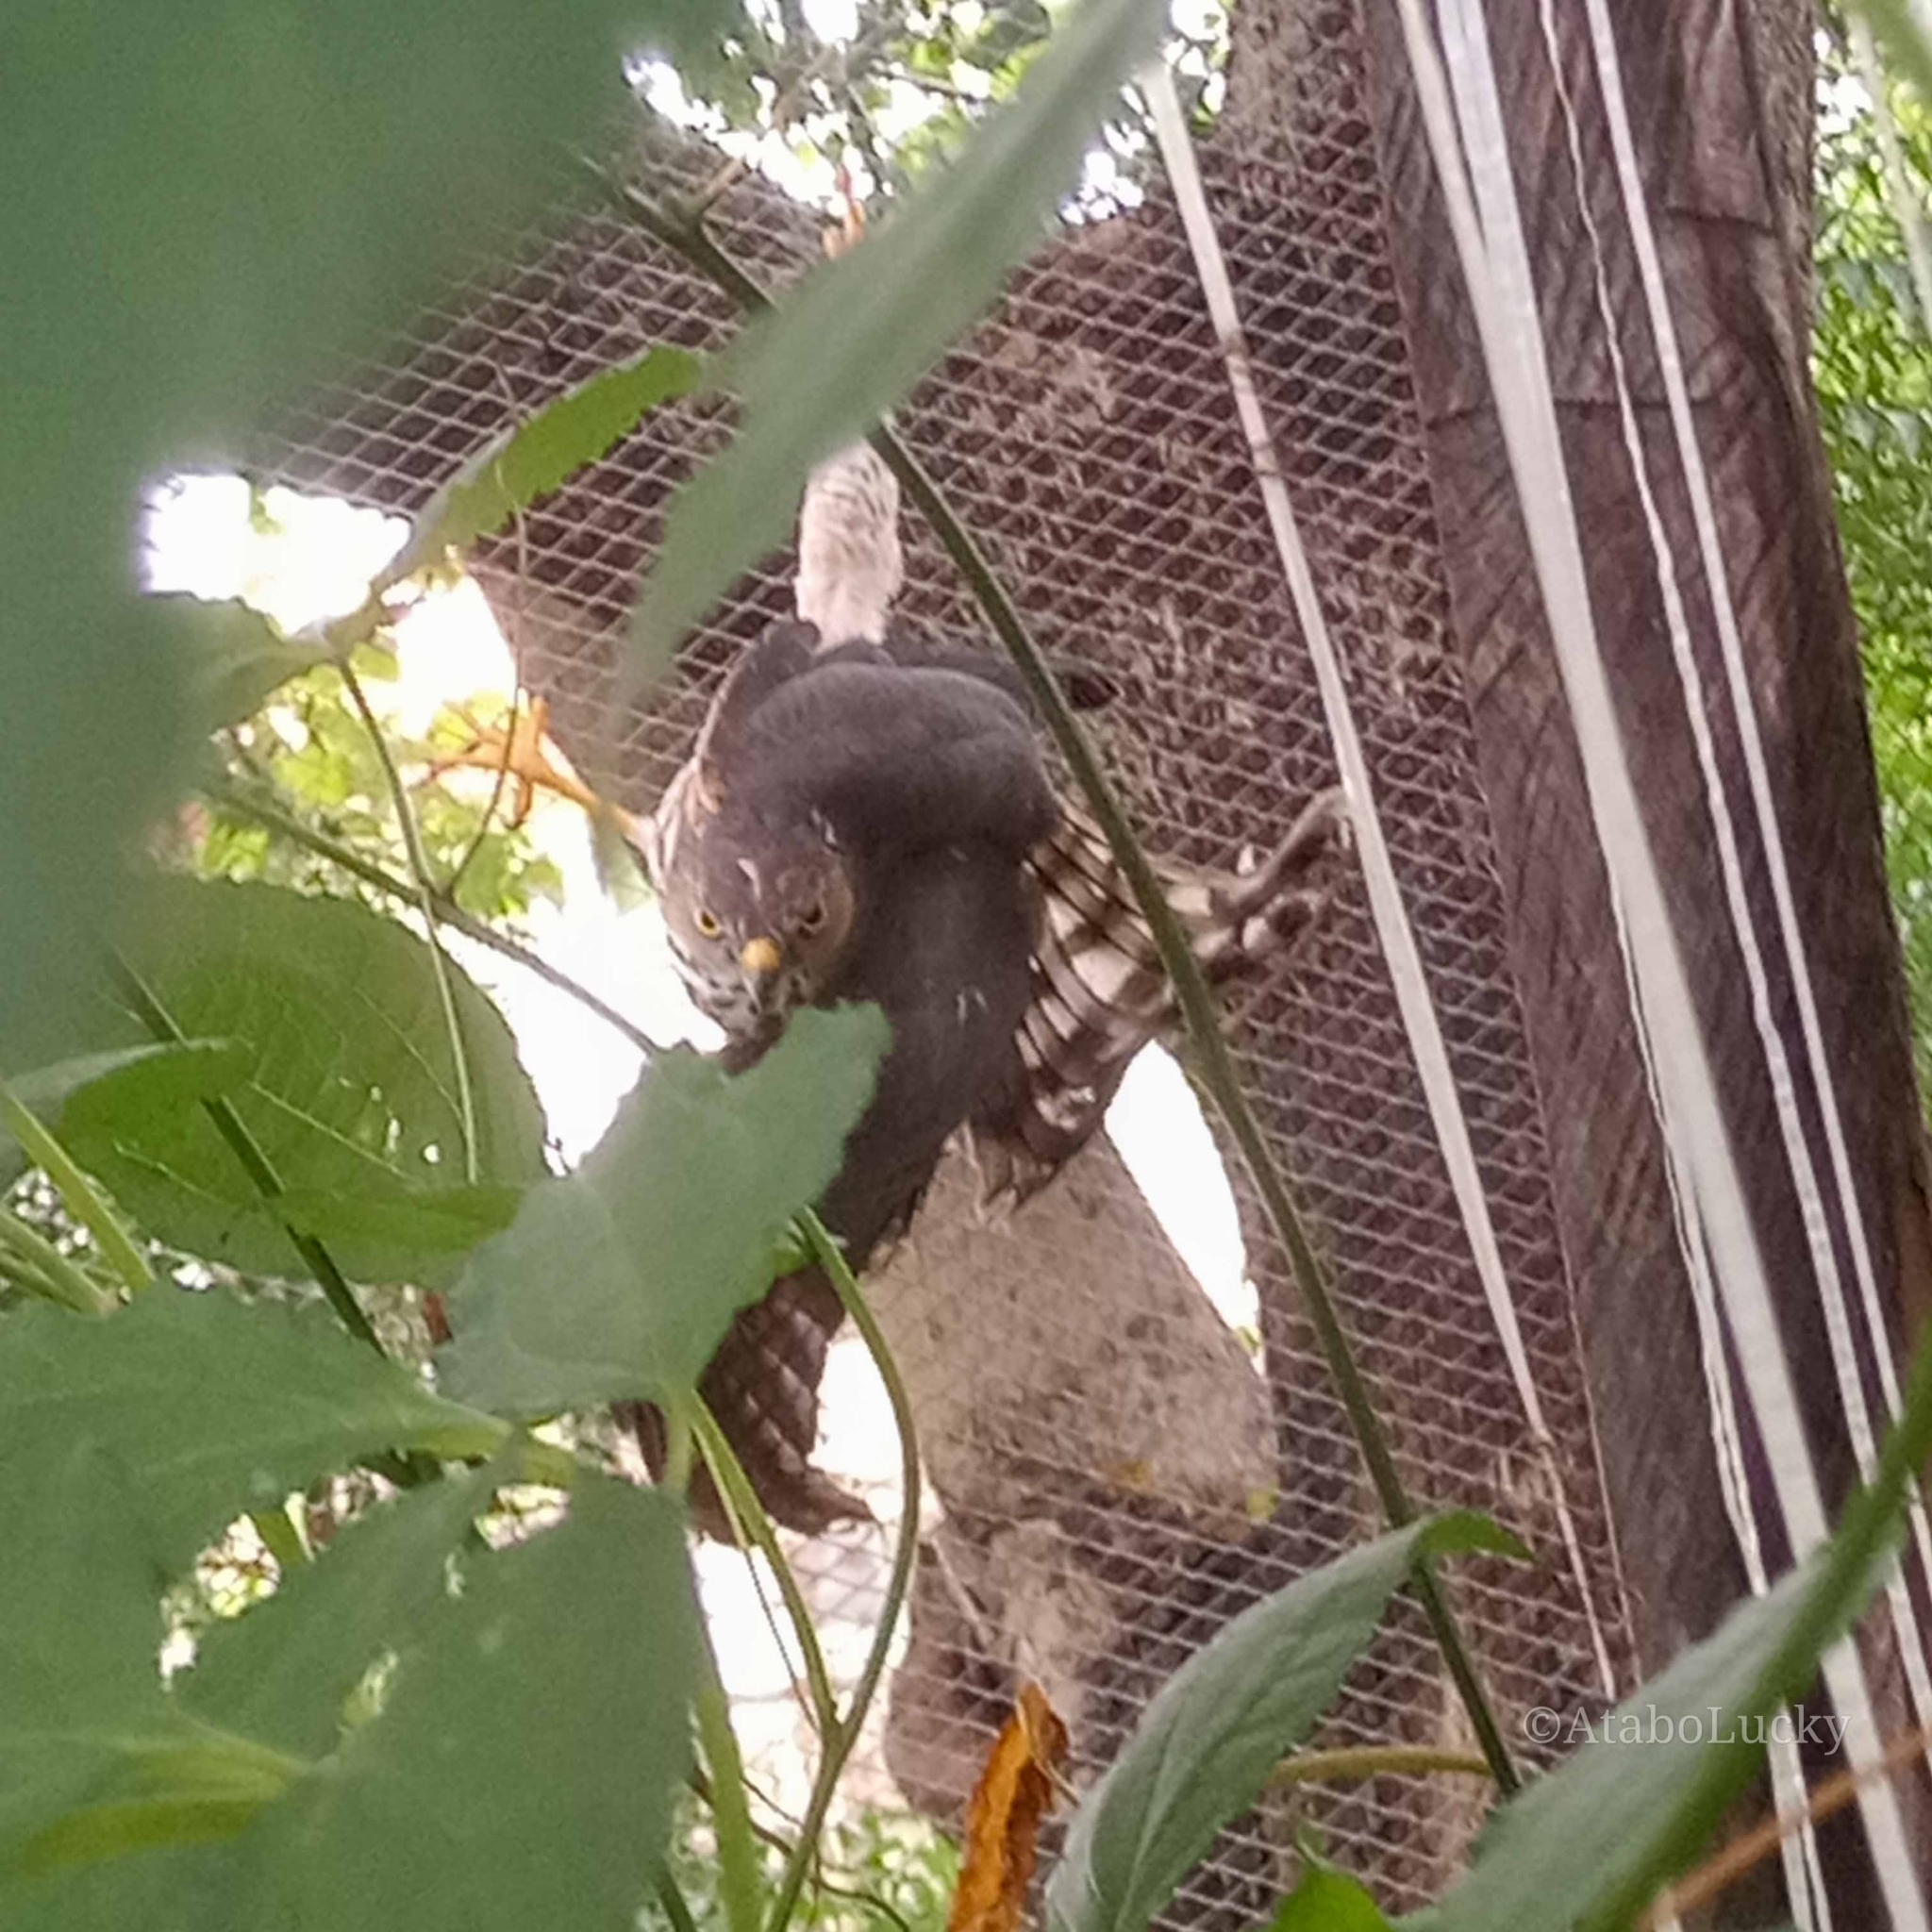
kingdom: Animalia
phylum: Chordata
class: Aves
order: Accipitriformes
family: Accipitridae
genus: Accipiter
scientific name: Accipiter badius
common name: Shikra
